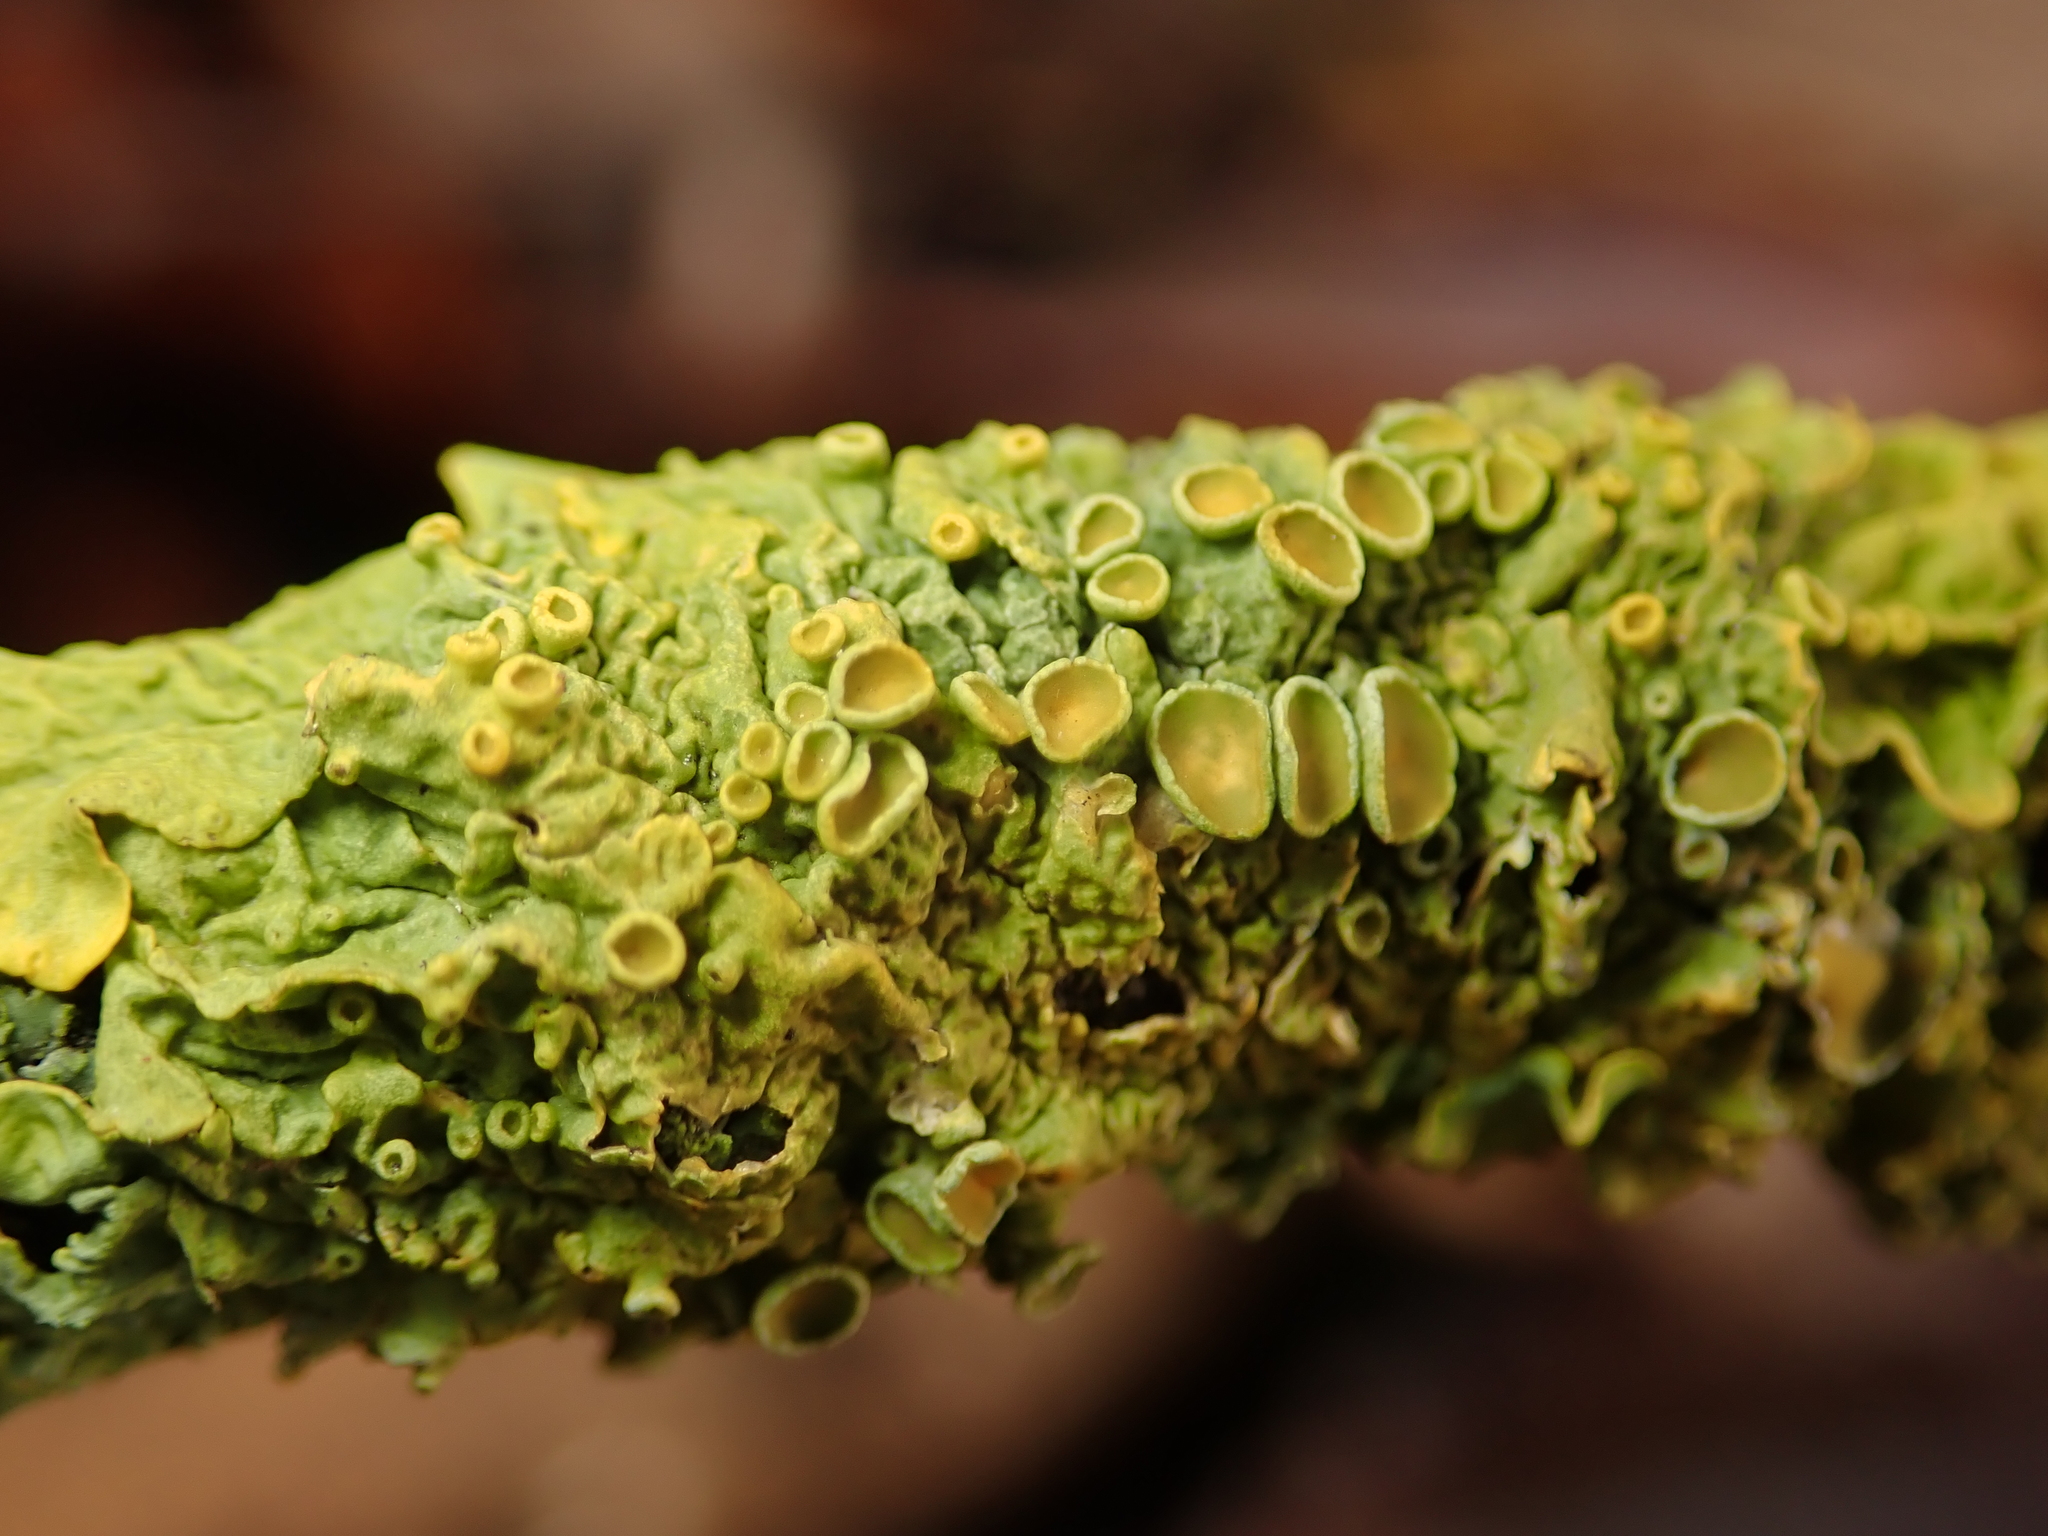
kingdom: Fungi
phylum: Ascomycota
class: Lecanoromycetes
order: Teloschistales
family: Teloschistaceae
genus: Xanthoria
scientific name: Xanthoria parietina
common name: Common orange lichen
